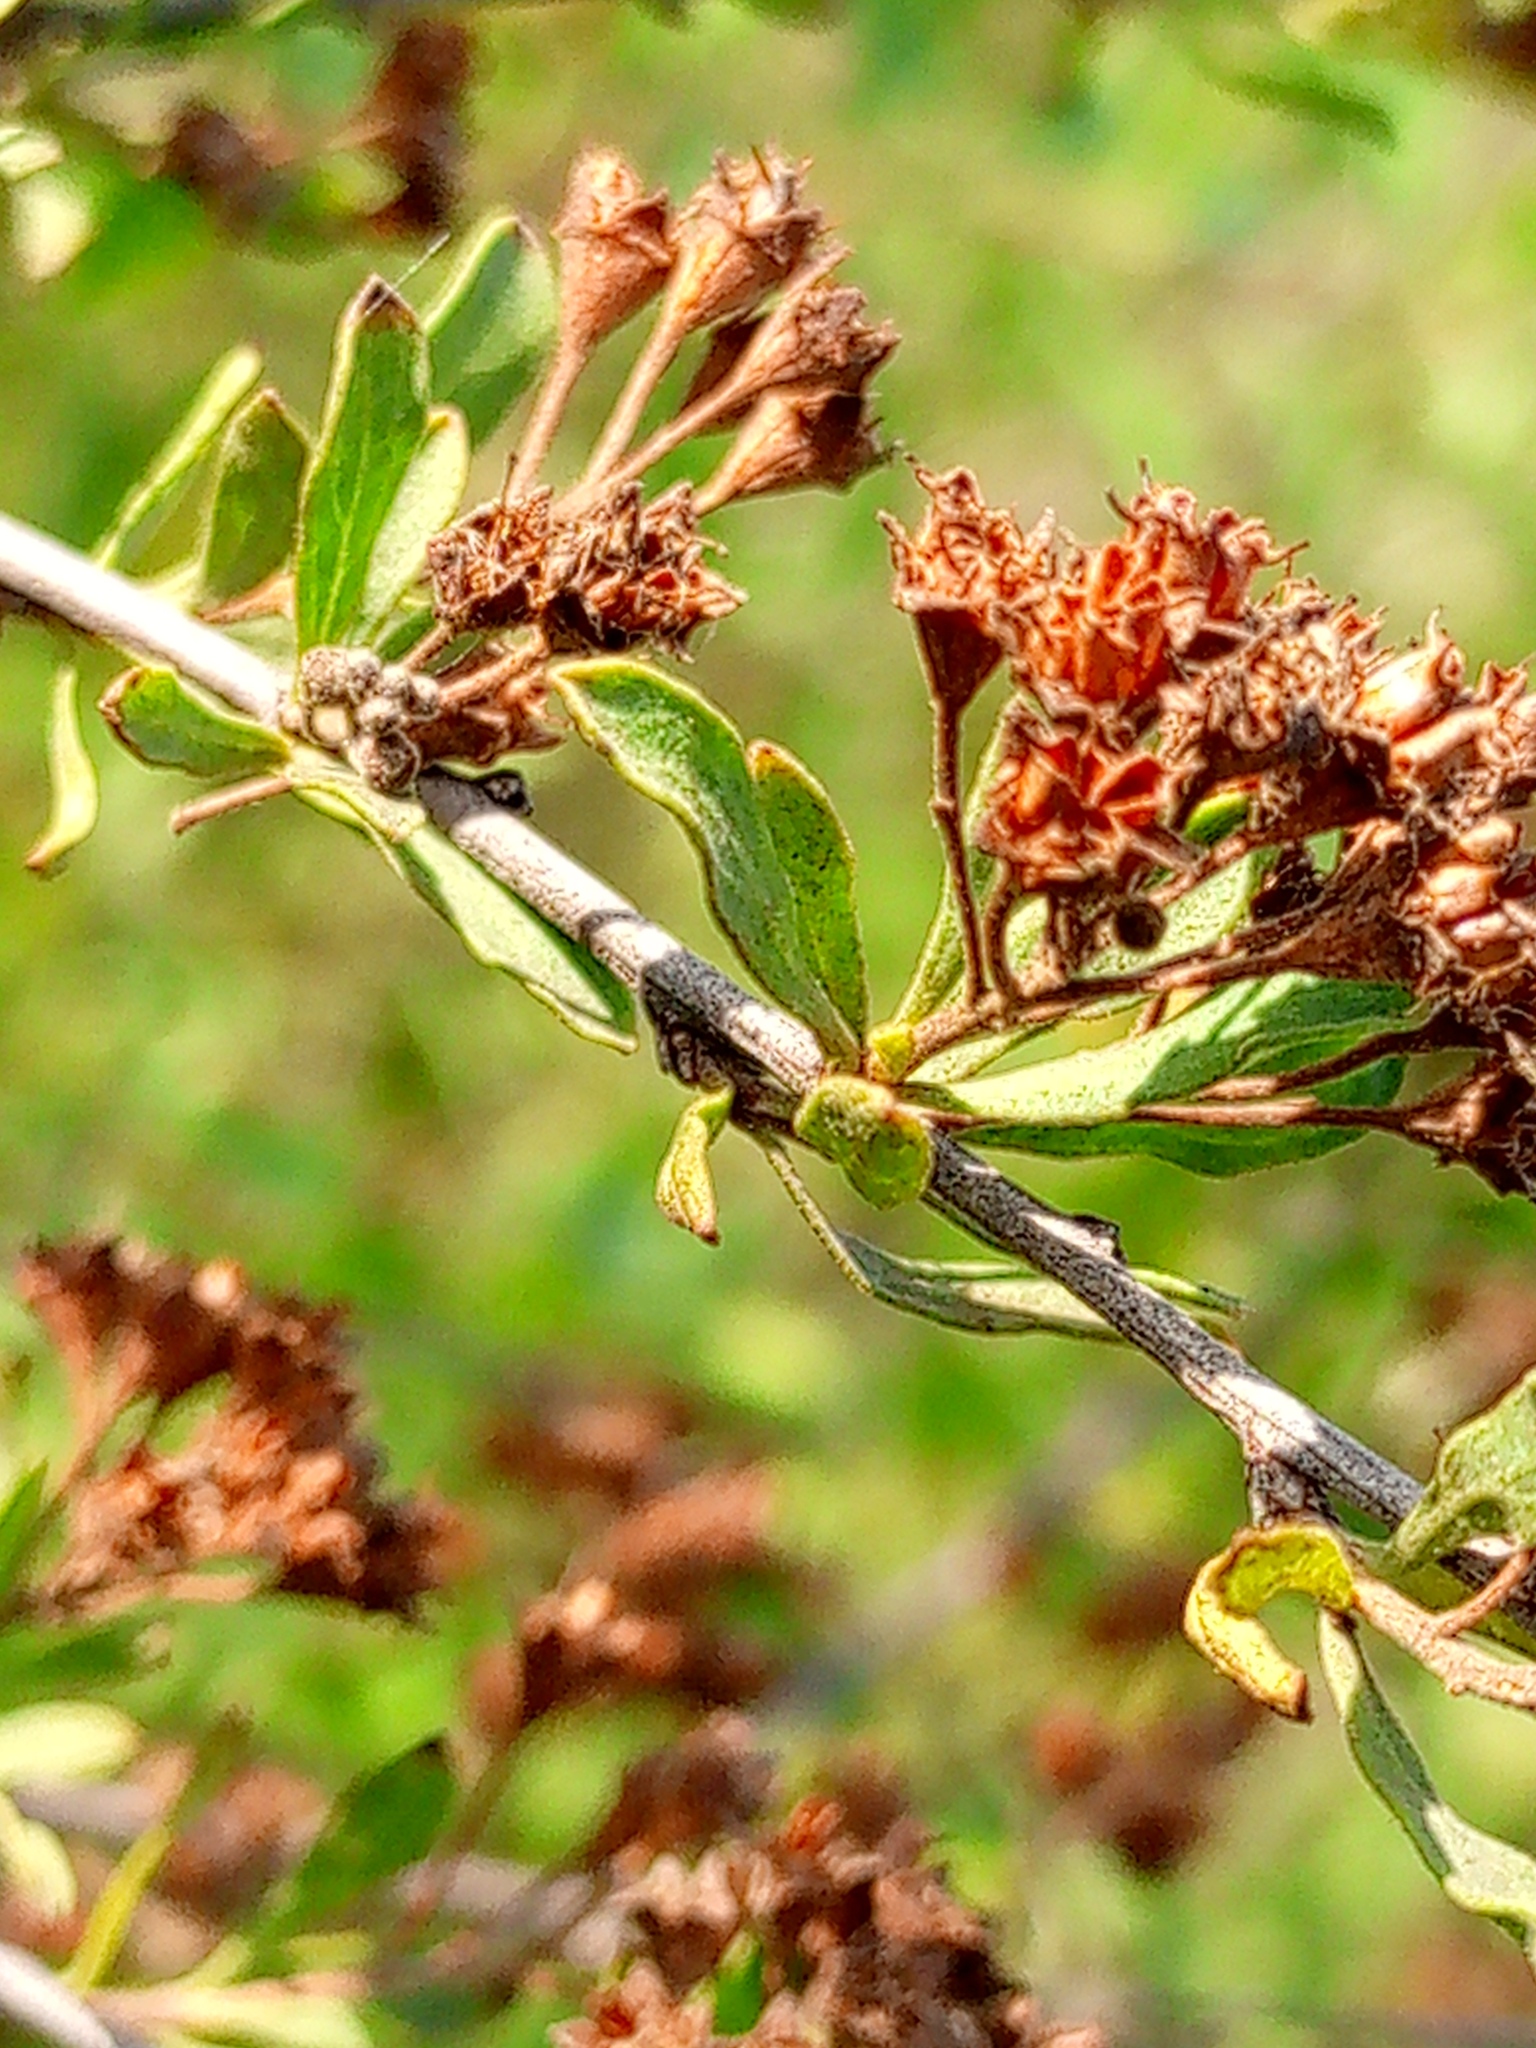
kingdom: Plantae
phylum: Tracheophyta
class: Magnoliopsida
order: Rosales
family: Rosaceae
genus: Spiraea
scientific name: Spiraea crenata
